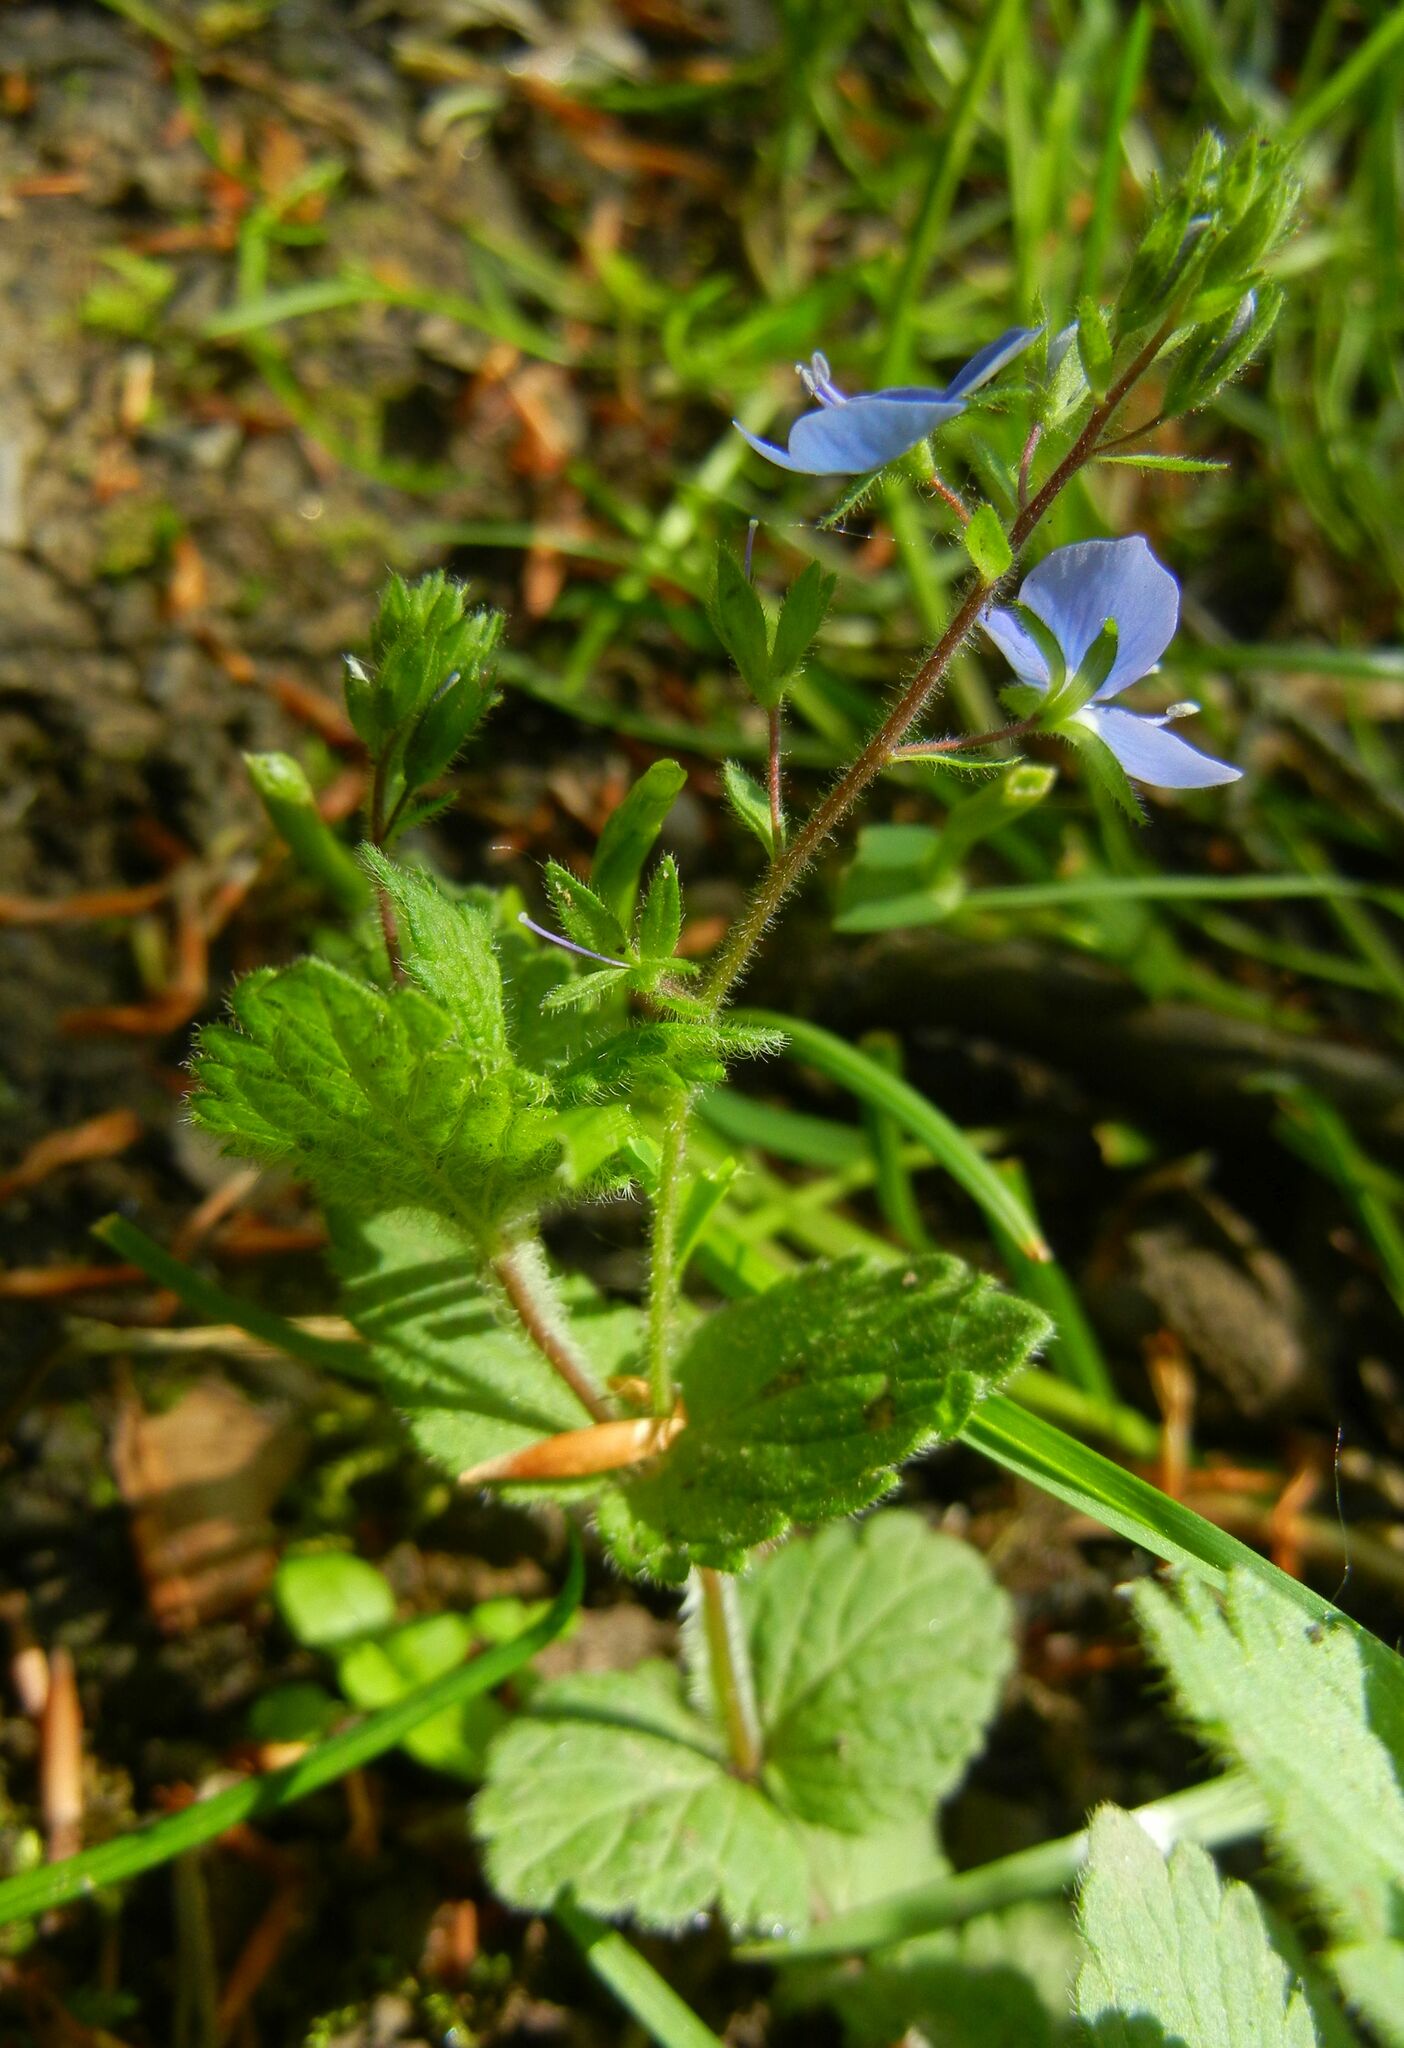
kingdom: Plantae
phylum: Tracheophyta
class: Magnoliopsida
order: Lamiales
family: Plantaginaceae
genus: Veronica
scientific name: Veronica chamaedrys
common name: Germander speedwell
